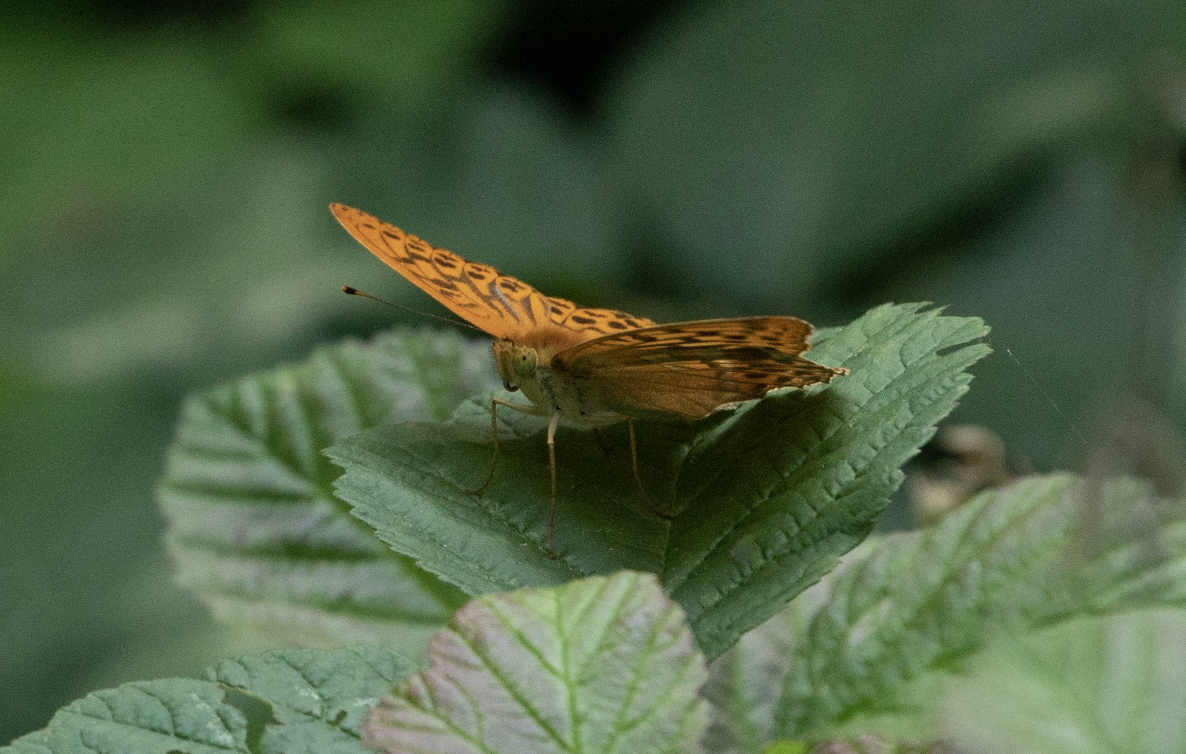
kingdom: Animalia
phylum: Arthropoda
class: Insecta
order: Lepidoptera
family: Nymphalidae
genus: Argynnis
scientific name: Argynnis paphia
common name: Silver-washed fritillary
